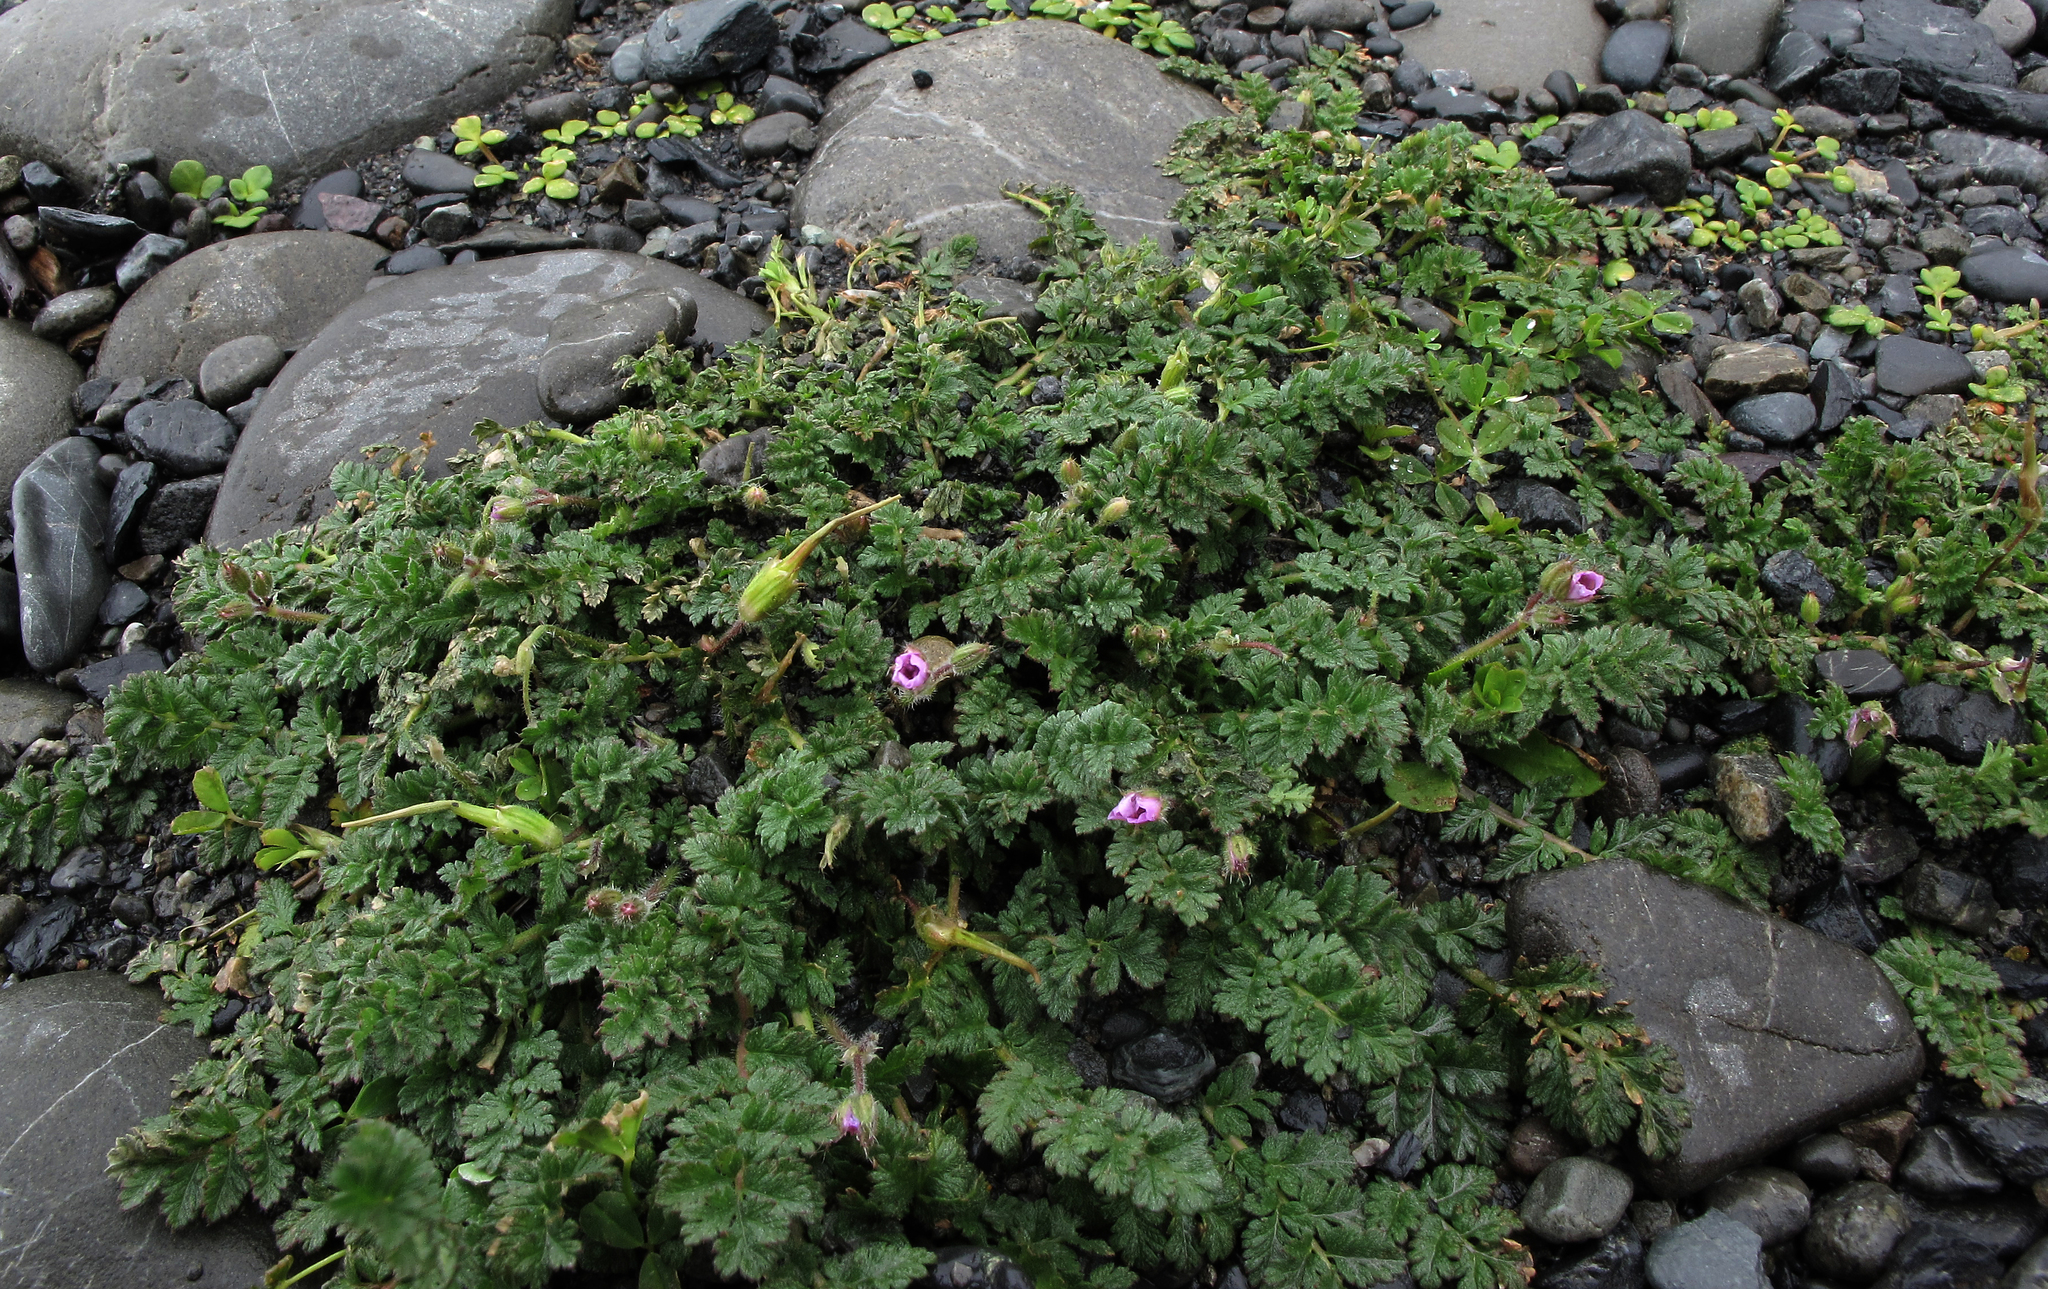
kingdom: Plantae
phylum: Tracheophyta
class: Magnoliopsida
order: Geraniales
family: Geraniaceae
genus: Erodium
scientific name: Erodium cicutarium
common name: Common stork's-bill
